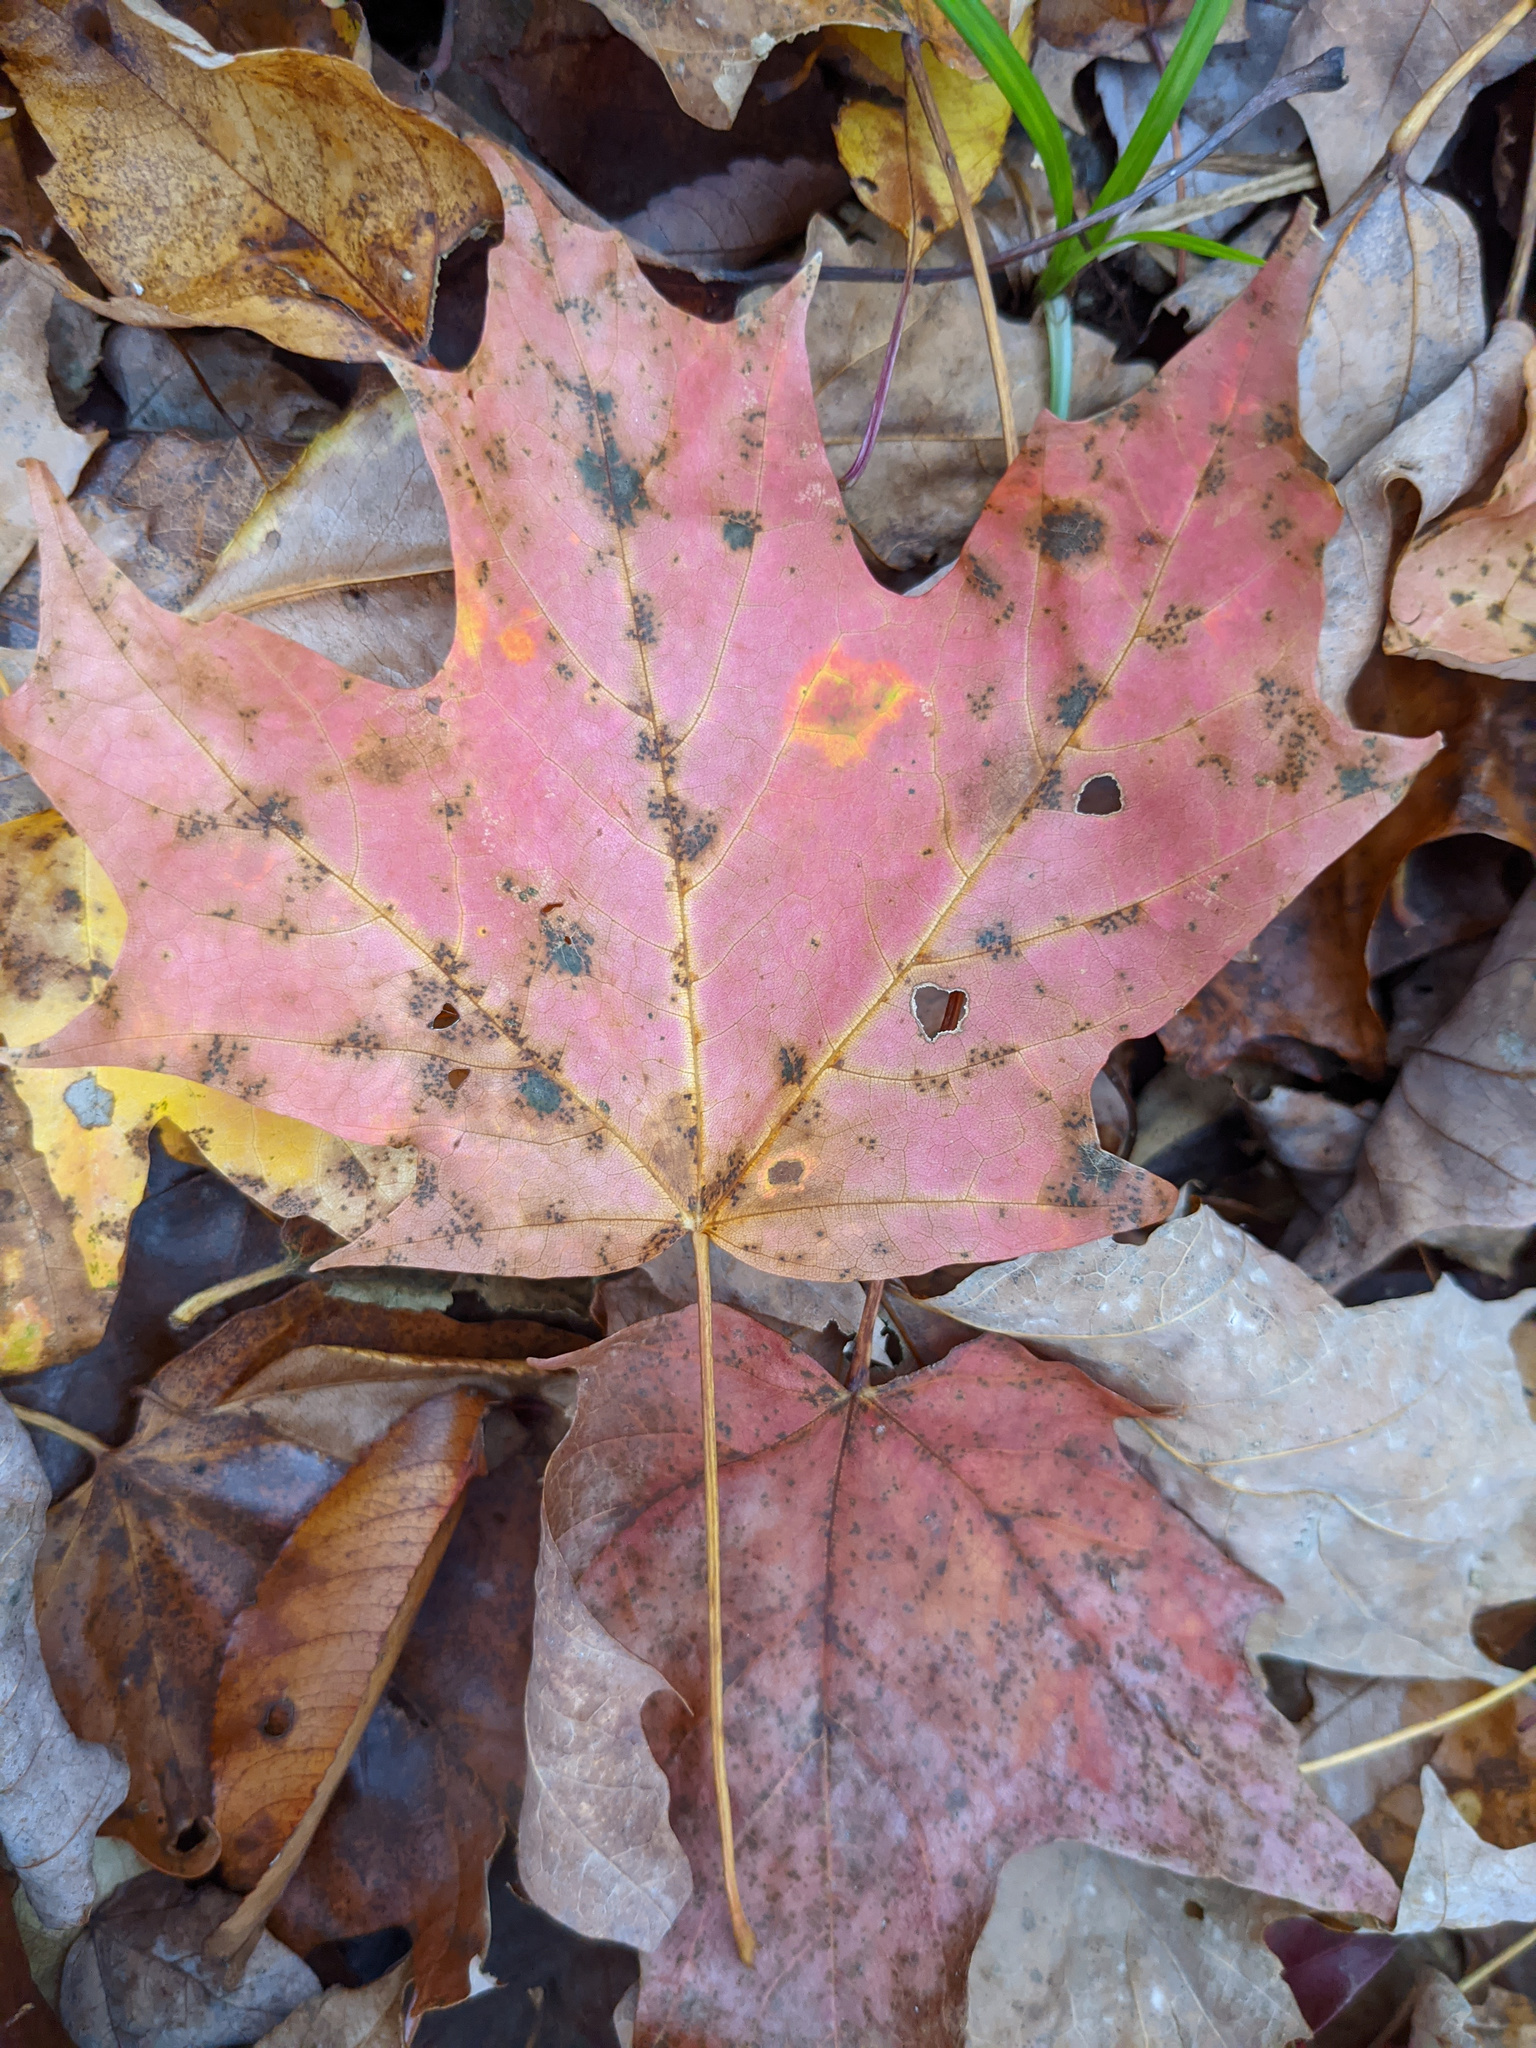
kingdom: Plantae
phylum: Tracheophyta
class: Magnoliopsida
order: Sapindales
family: Sapindaceae
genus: Acer
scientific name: Acer saccharum
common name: Sugar maple
